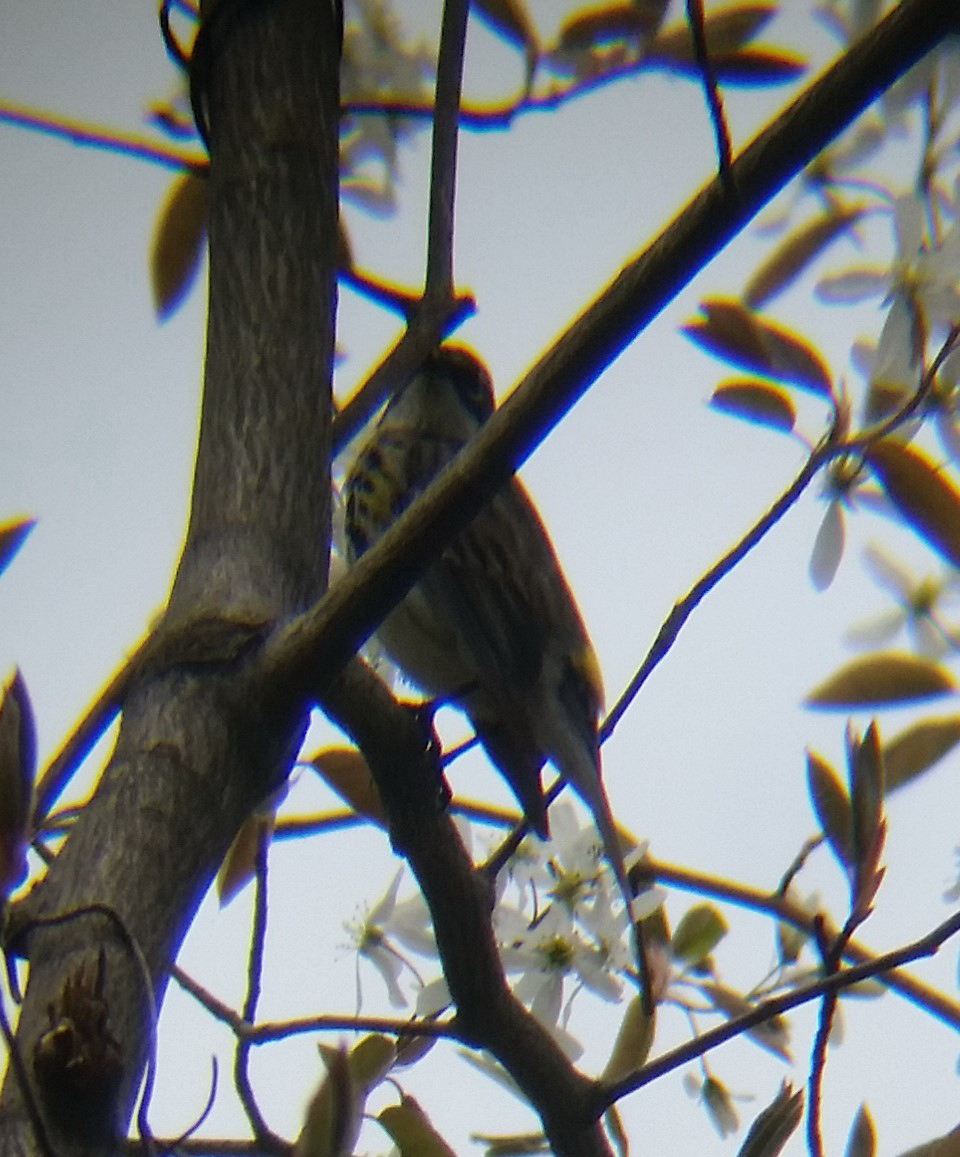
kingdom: Animalia
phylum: Chordata
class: Aves
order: Passeriformes
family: Parulidae
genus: Setophaga
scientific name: Setophaga coronata
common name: Myrtle warbler
